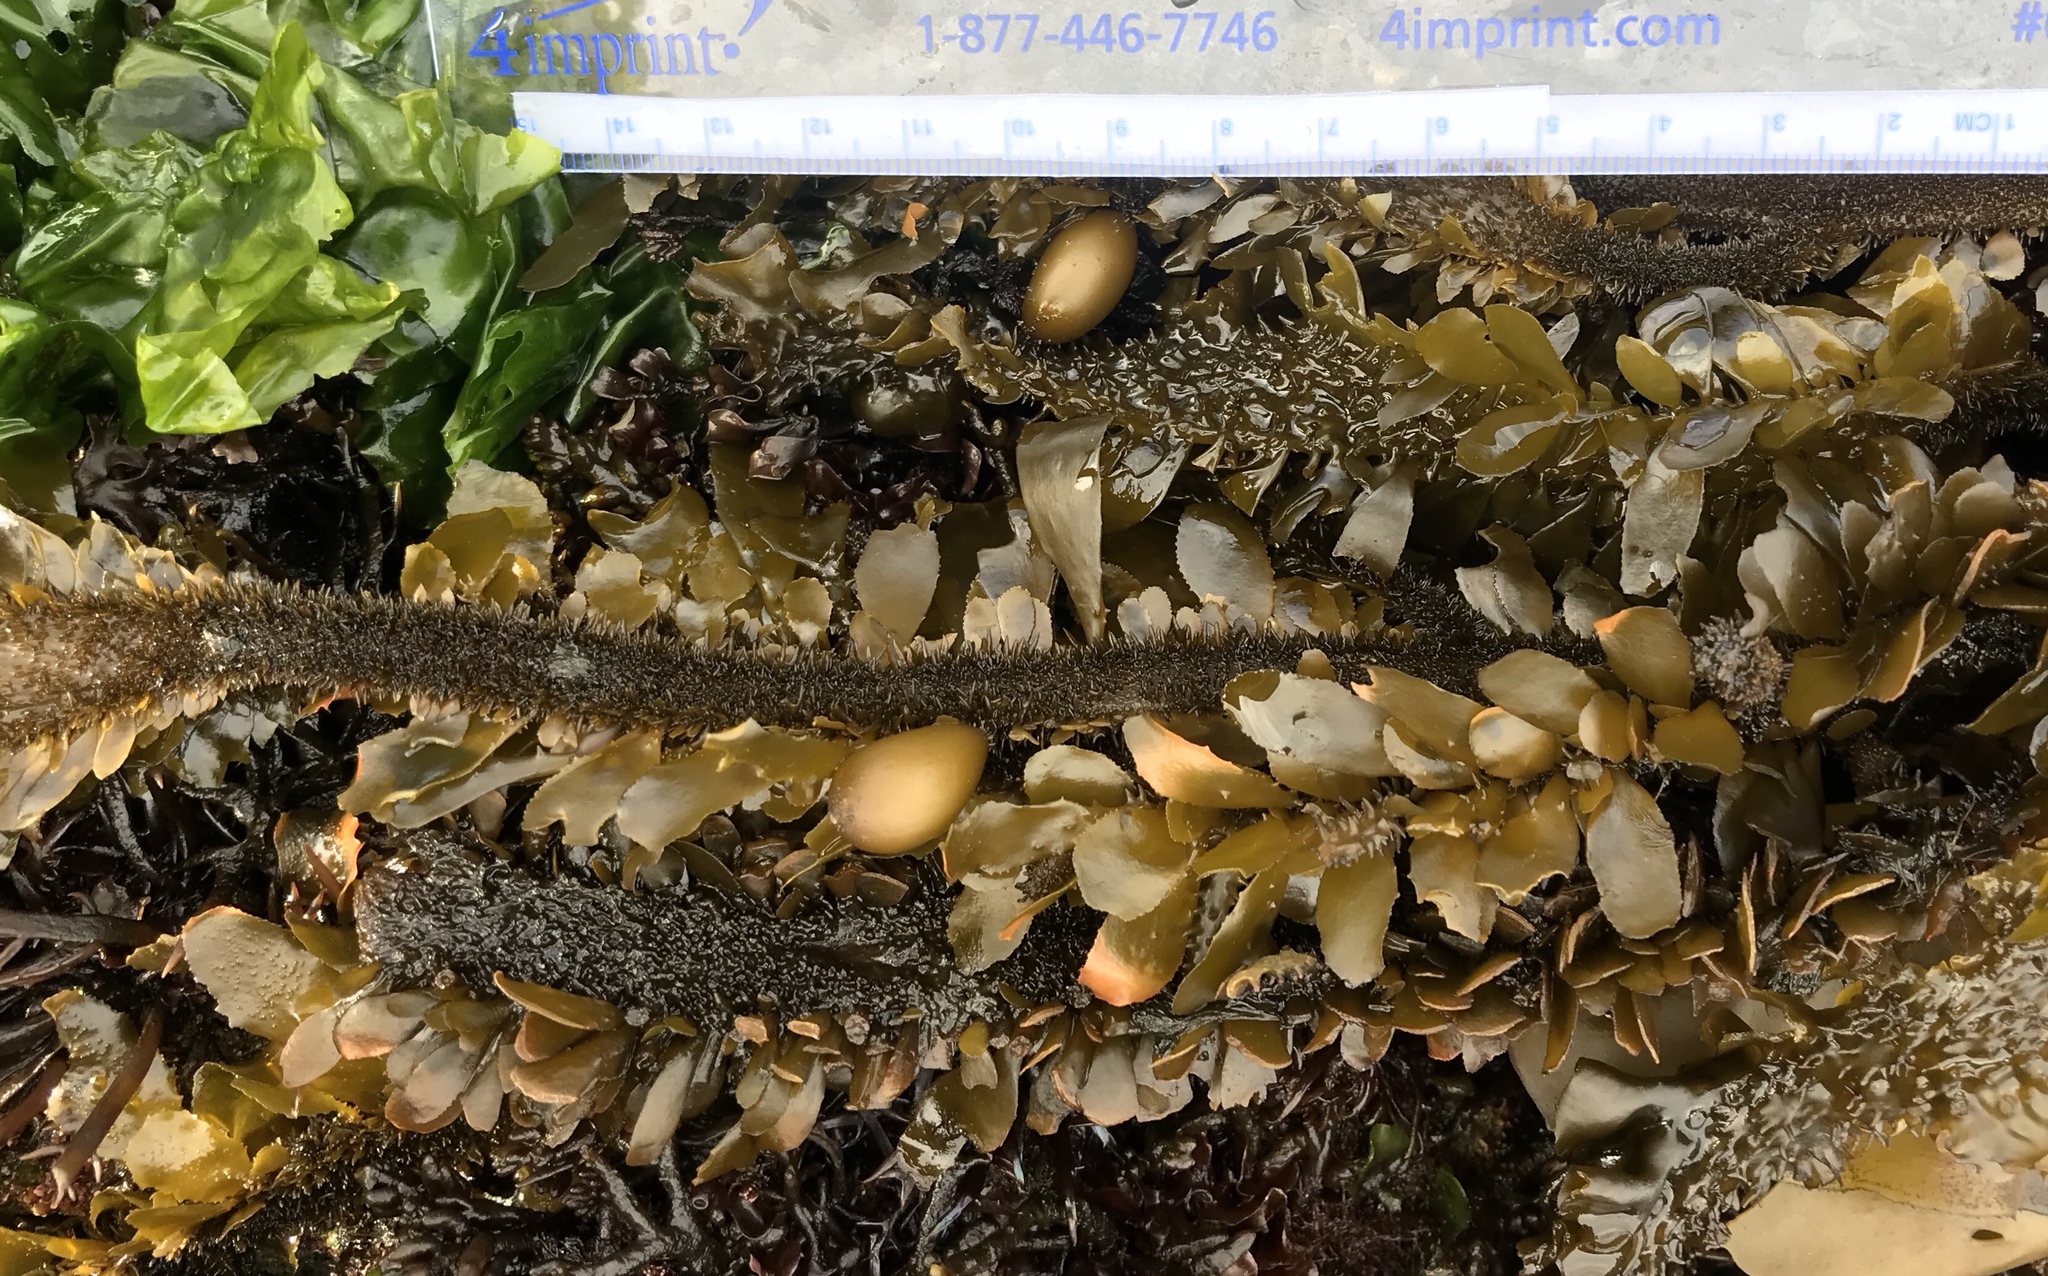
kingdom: Chromista
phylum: Ochrophyta
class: Phaeophyceae
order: Laminariales
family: Lessoniaceae
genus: Egregia
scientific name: Egregia menziesii
